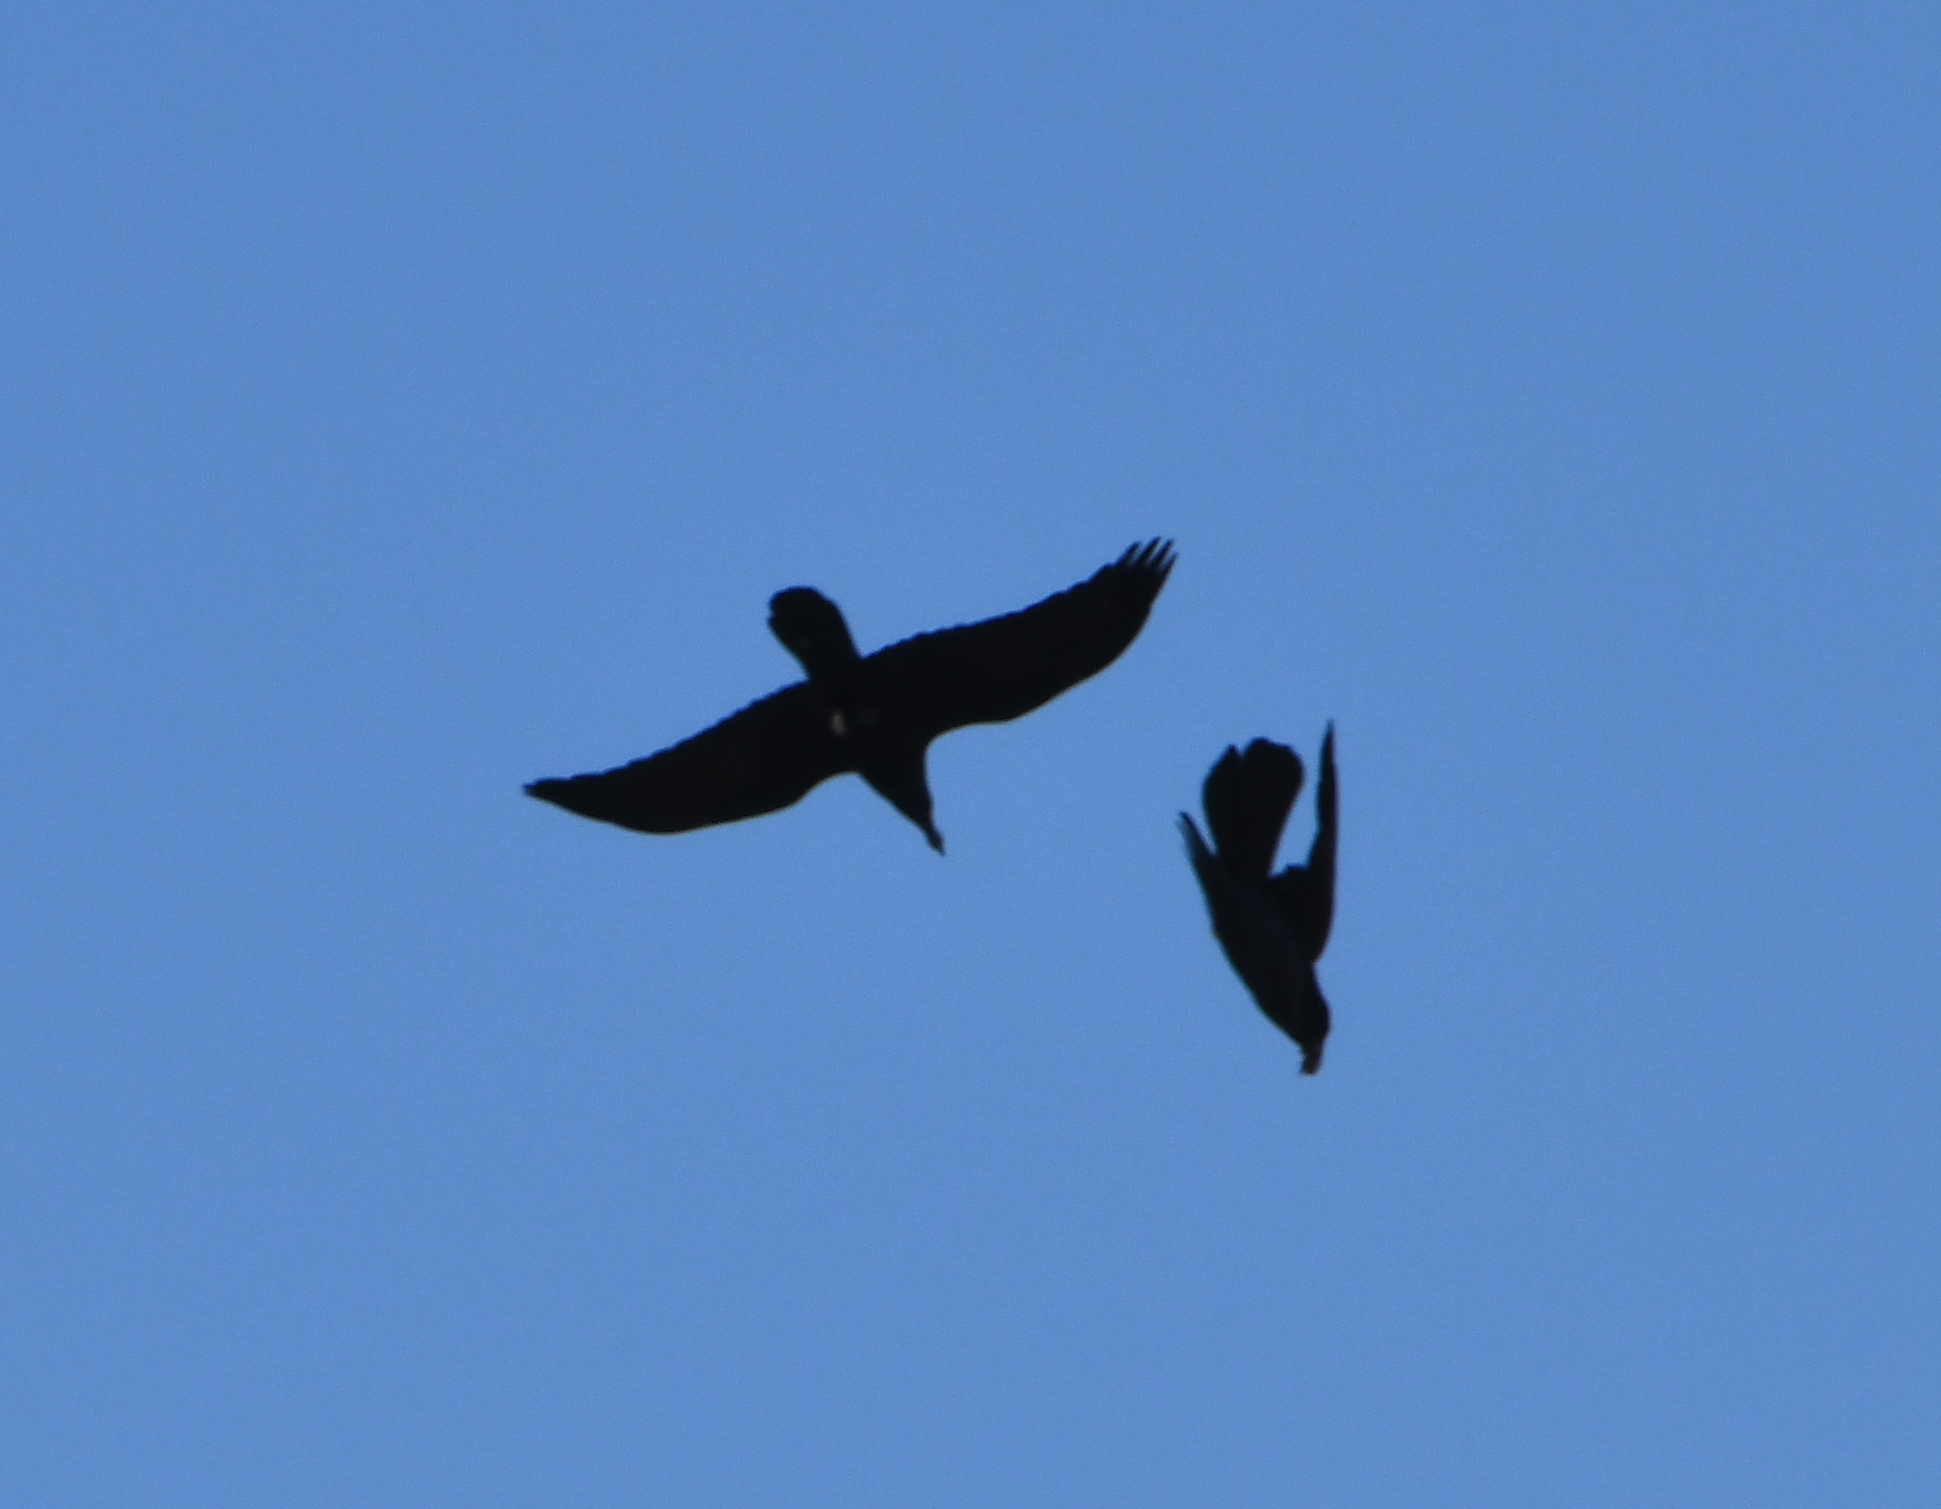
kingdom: Animalia
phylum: Chordata
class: Aves
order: Passeriformes
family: Corvidae
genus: Corvus
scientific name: Corvus corax
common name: Common raven
